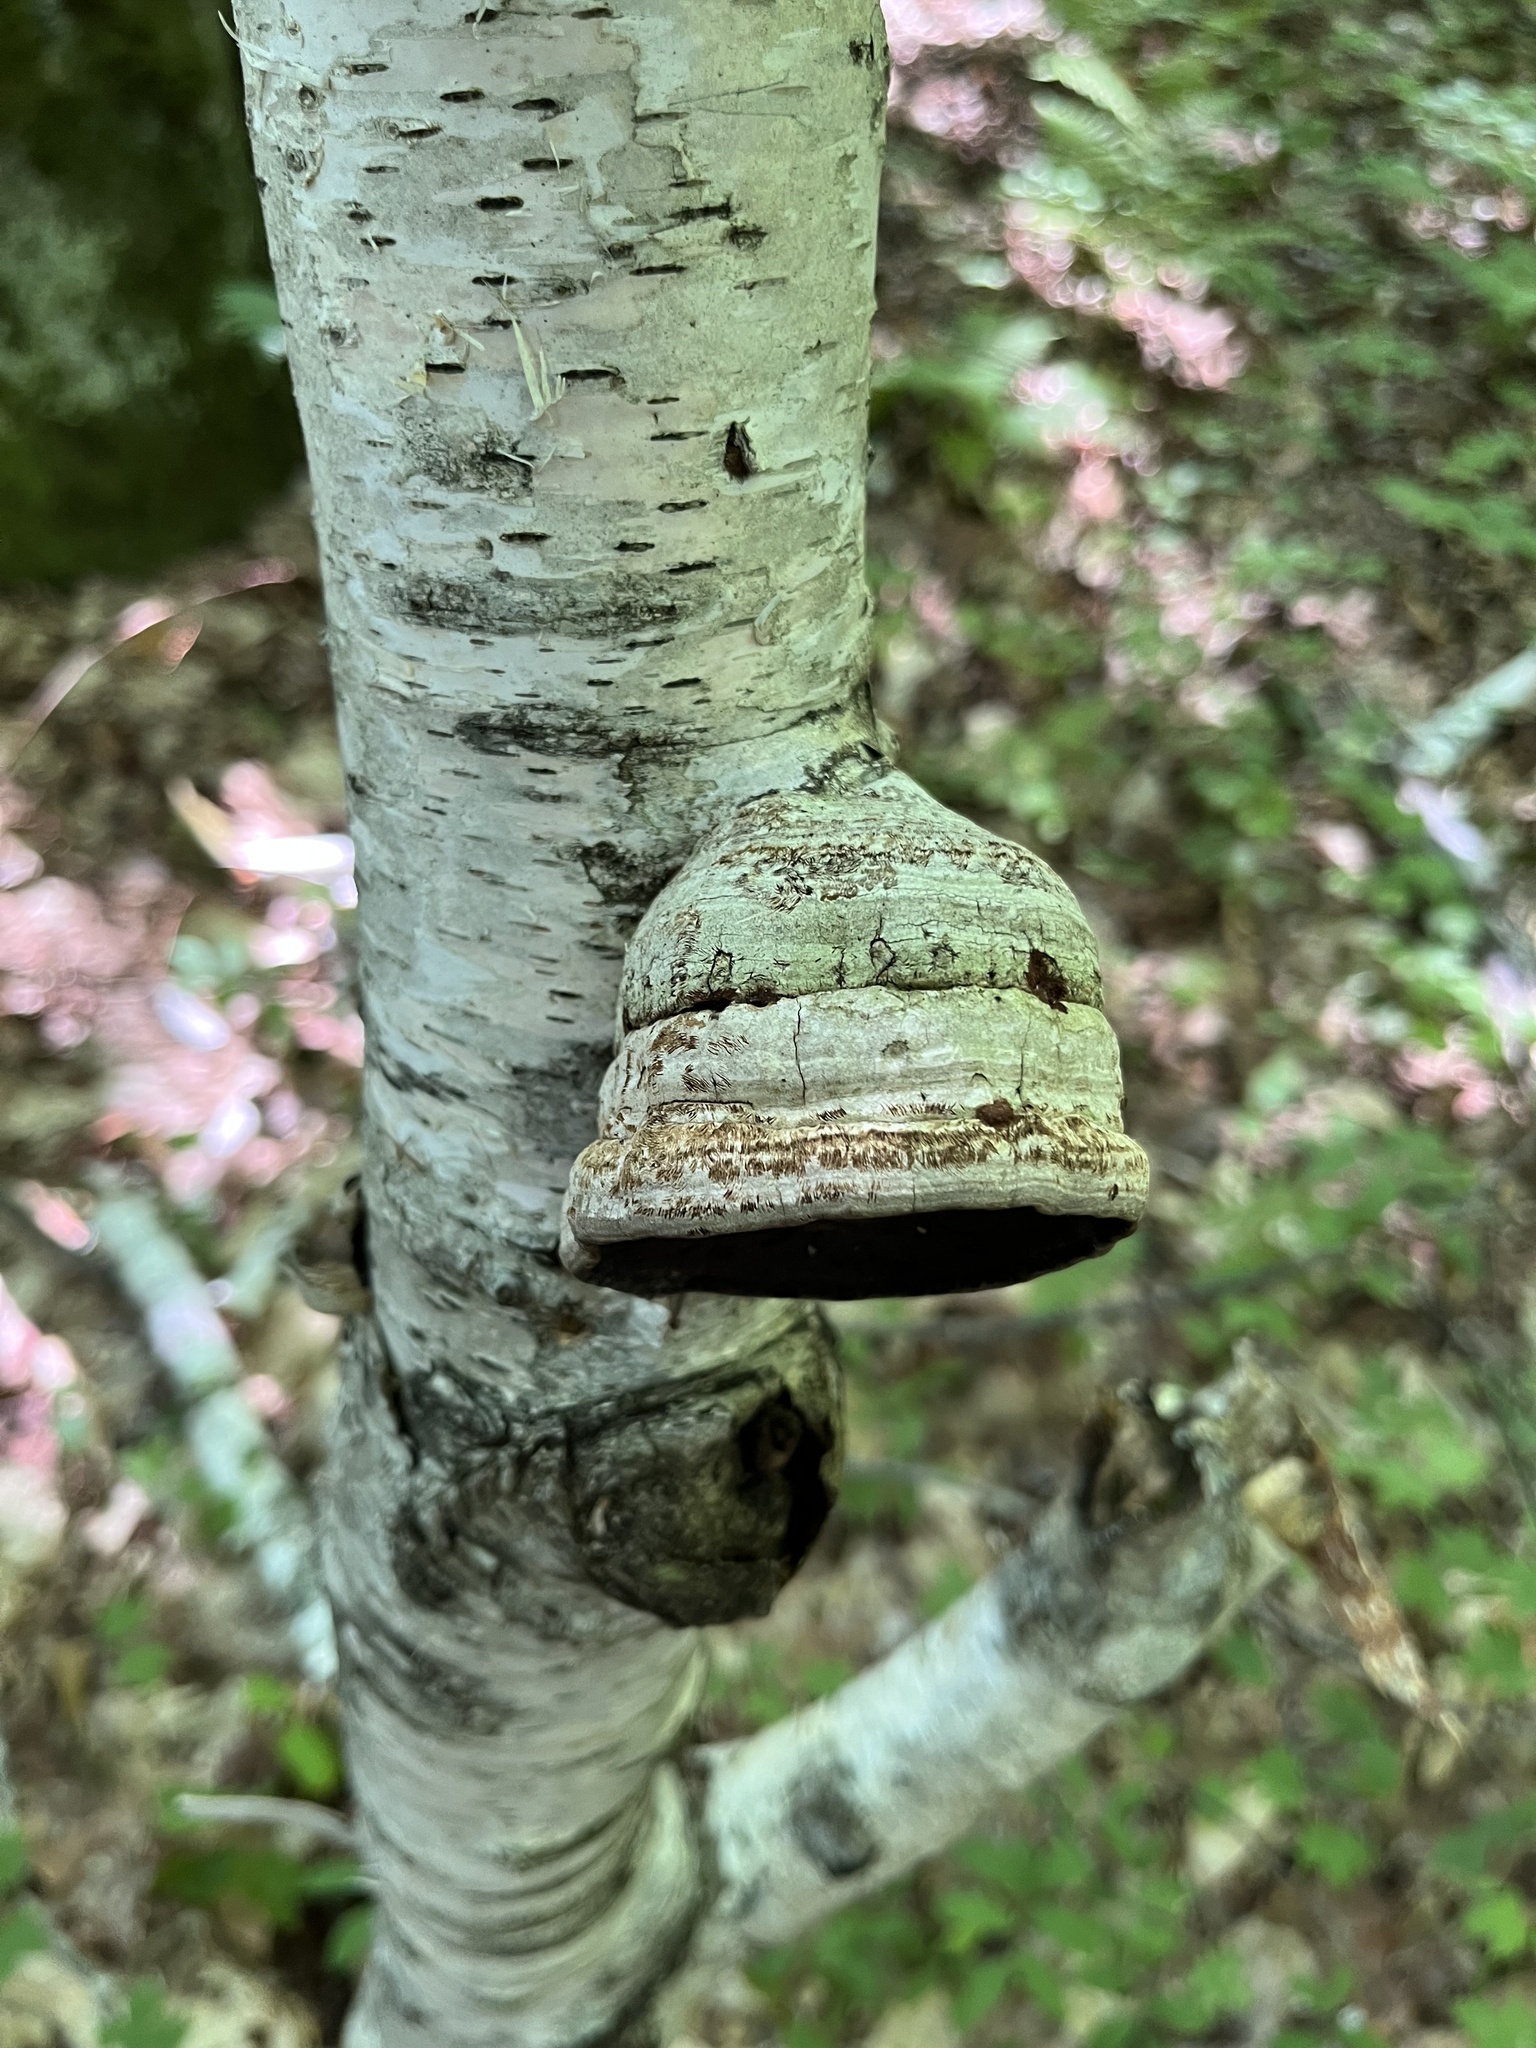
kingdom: Fungi
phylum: Basidiomycota
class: Agaricomycetes
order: Polyporales
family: Polyporaceae
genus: Fomes
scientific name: Fomes fomentarius
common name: Hoof fungus
